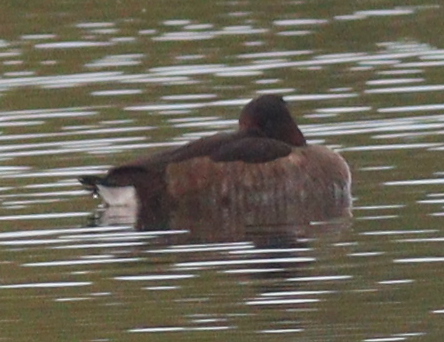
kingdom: Animalia
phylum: Chordata
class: Aves
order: Anseriformes
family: Anatidae
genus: Aythya
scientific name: Aythya nyroca
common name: Ferruginous duck
